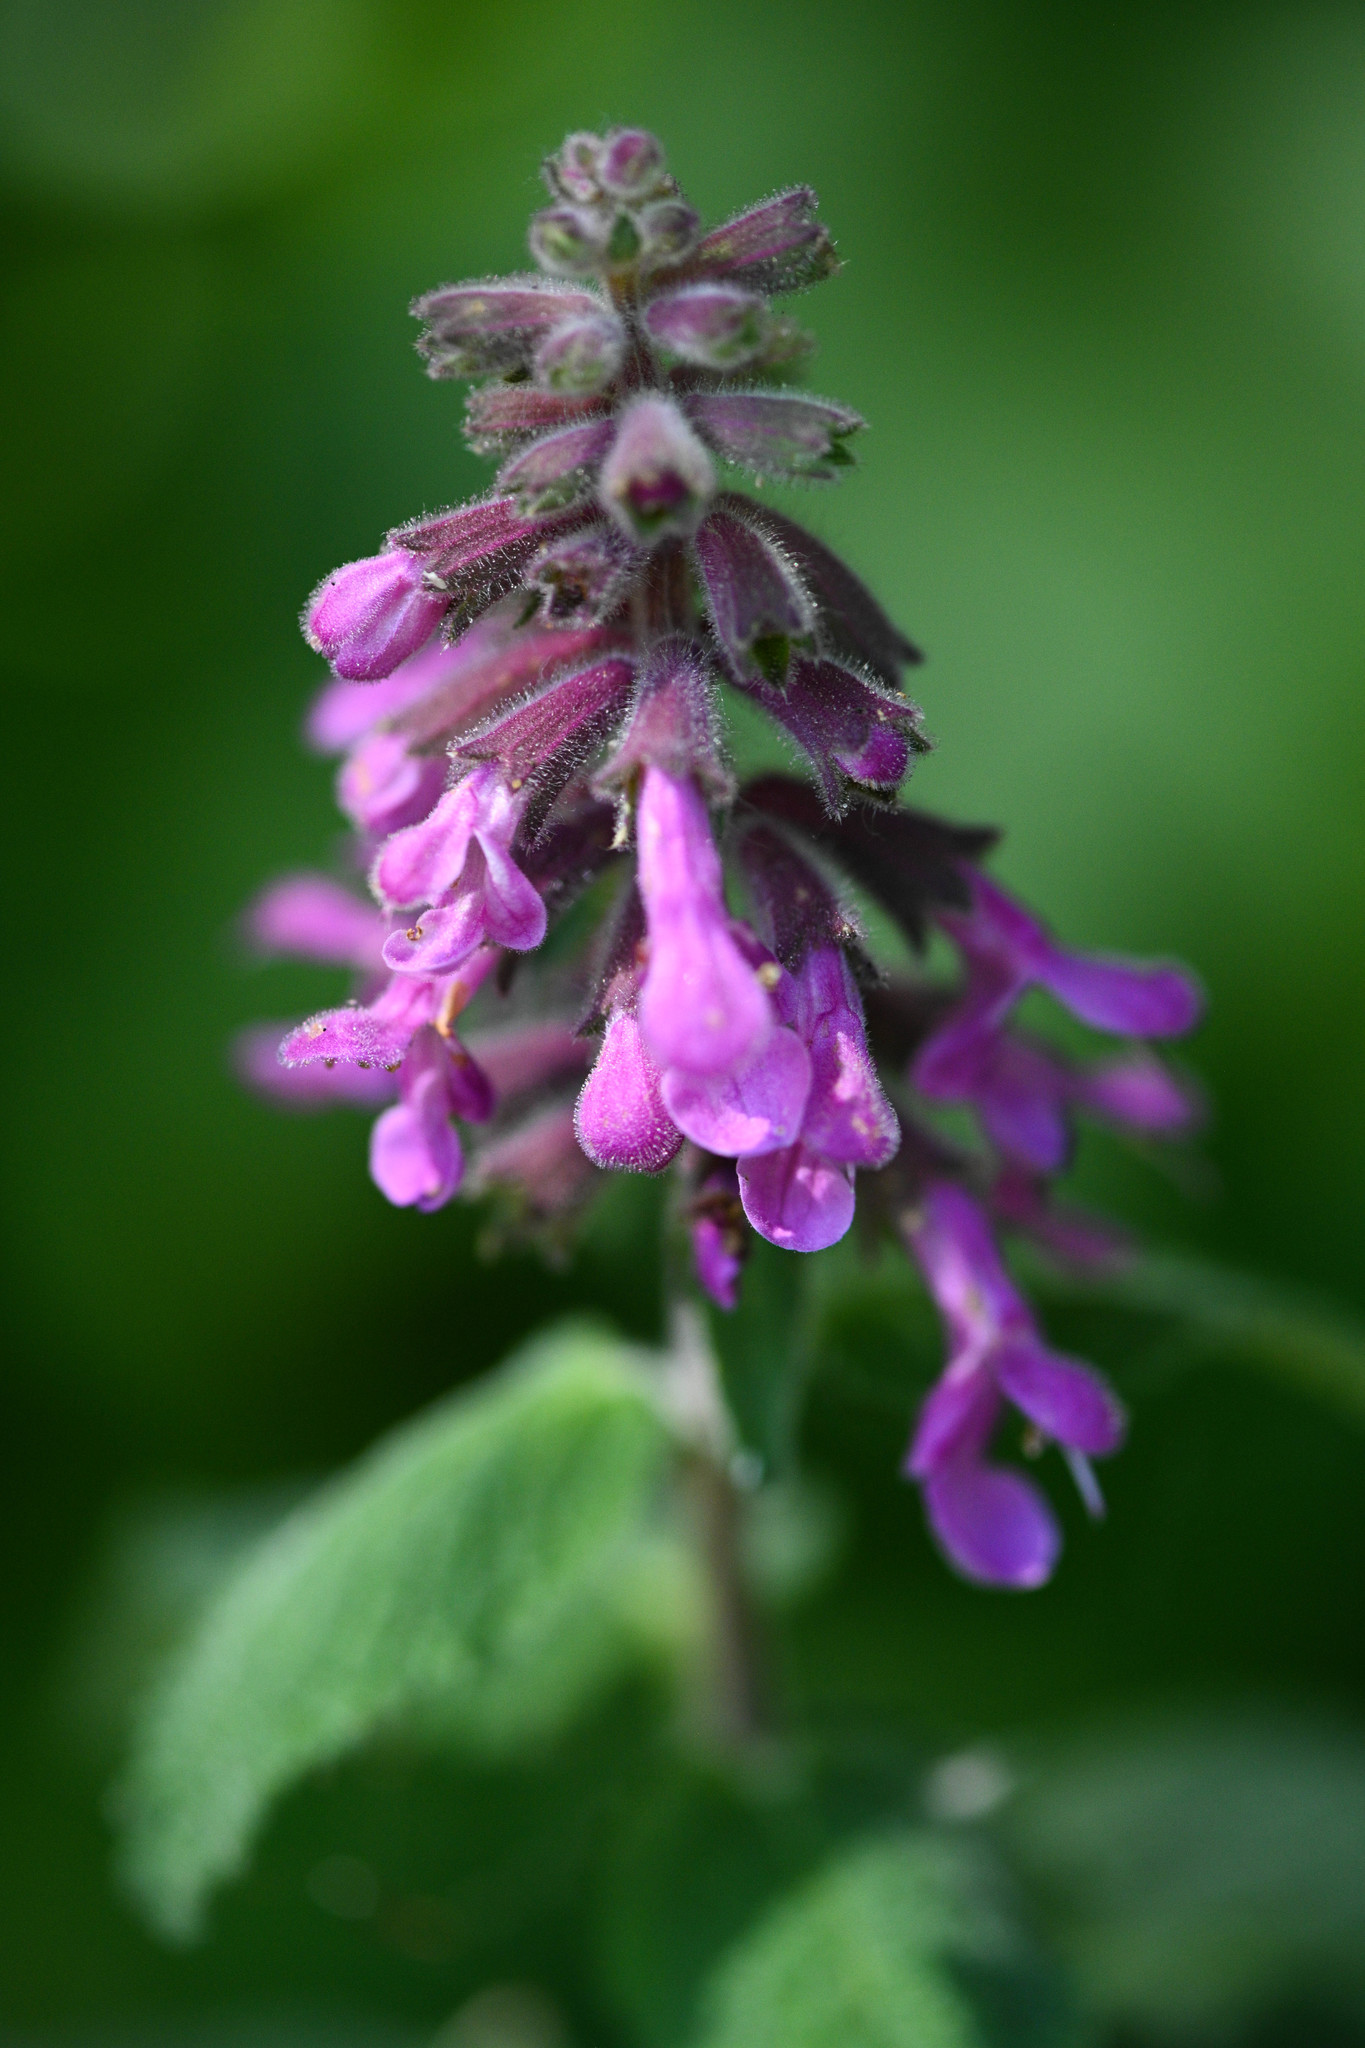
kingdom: Plantae
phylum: Tracheophyta
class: Magnoliopsida
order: Lamiales
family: Lamiaceae
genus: Stachys
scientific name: Stachys chamissonis
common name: Coastal hedge-nettle
